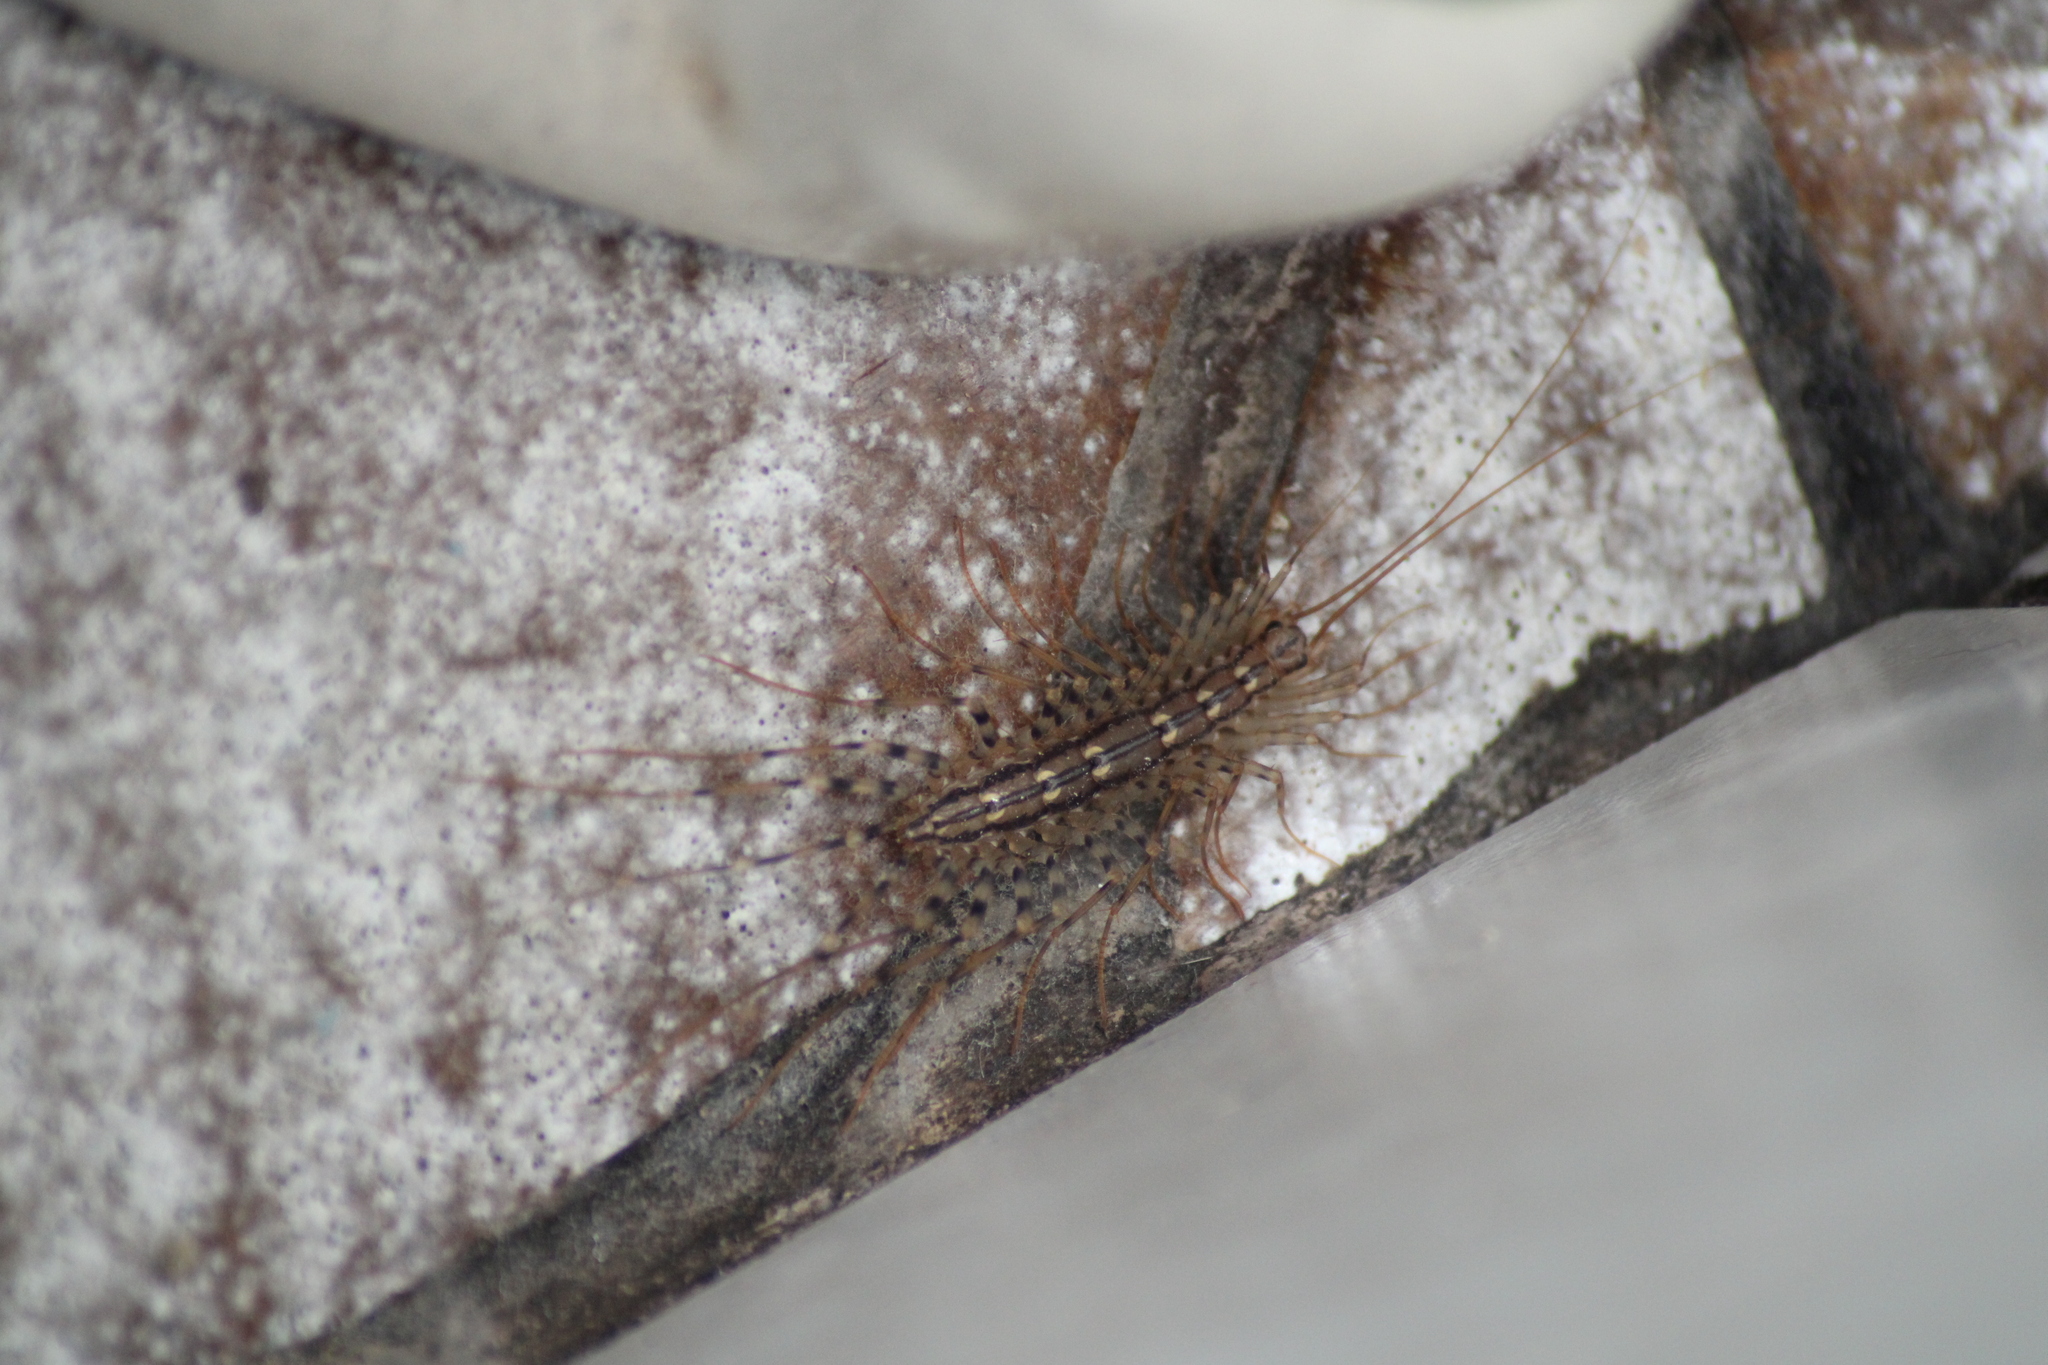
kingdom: Animalia
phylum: Arthropoda
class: Chilopoda
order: Scutigeromorpha
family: Scutigeridae
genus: Scutigera
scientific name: Scutigera coleoptrata
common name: House centipede
